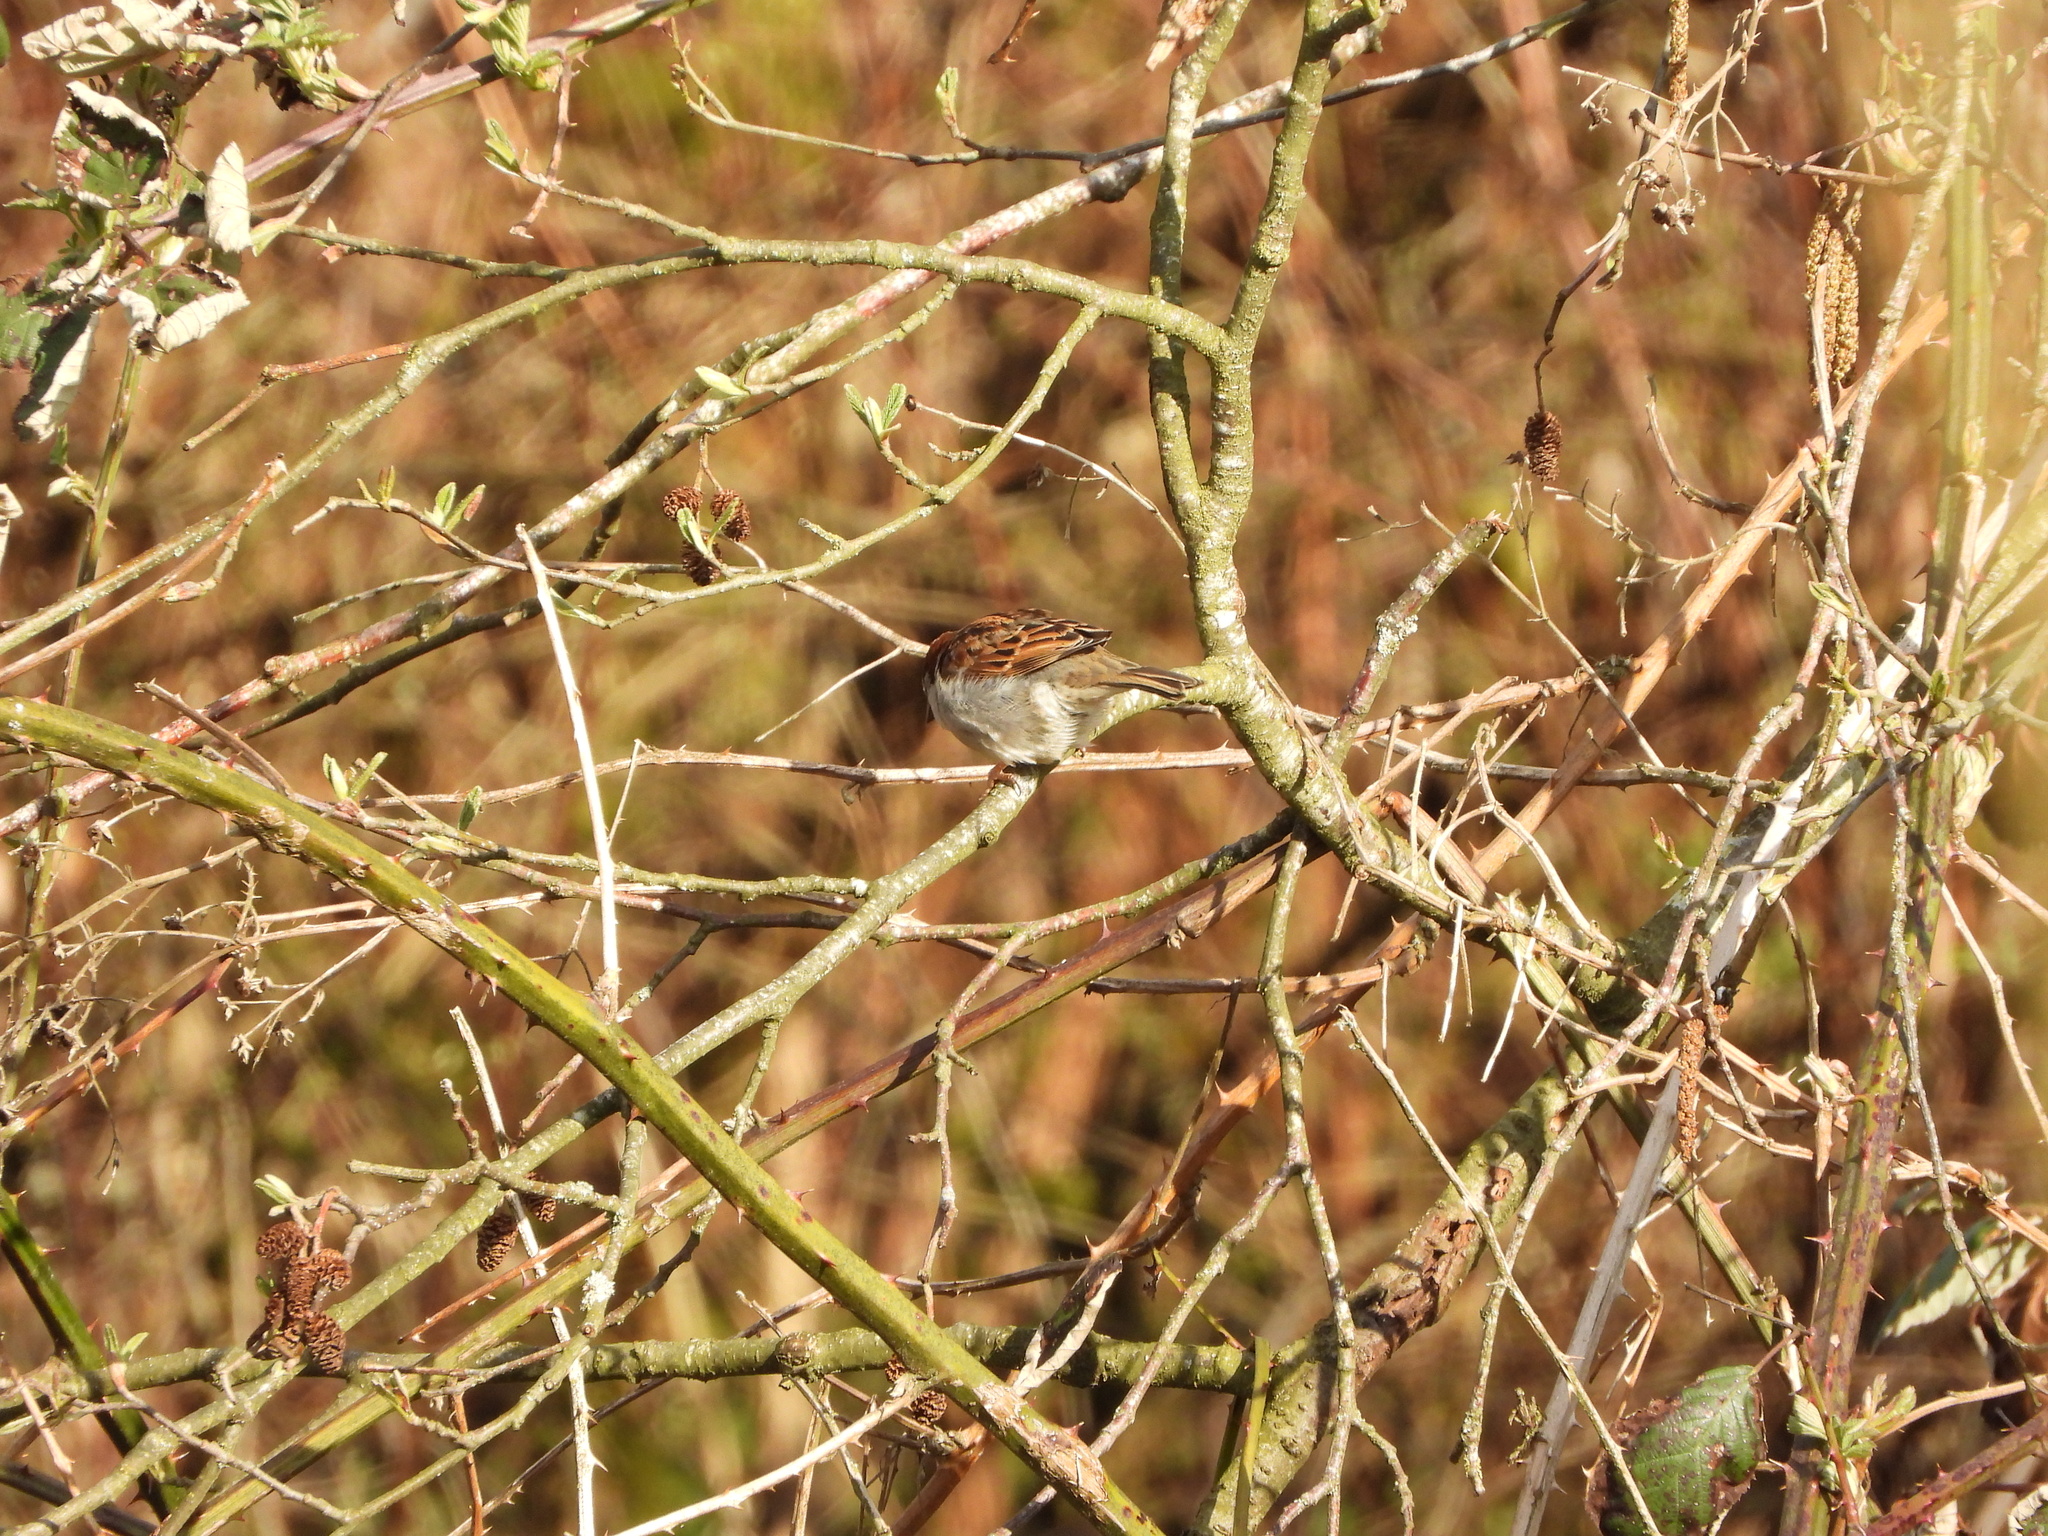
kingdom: Animalia
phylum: Chordata
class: Aves
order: Passeriformes
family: Passeridae
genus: Passer
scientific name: Passer domesticus
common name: House sparrow
